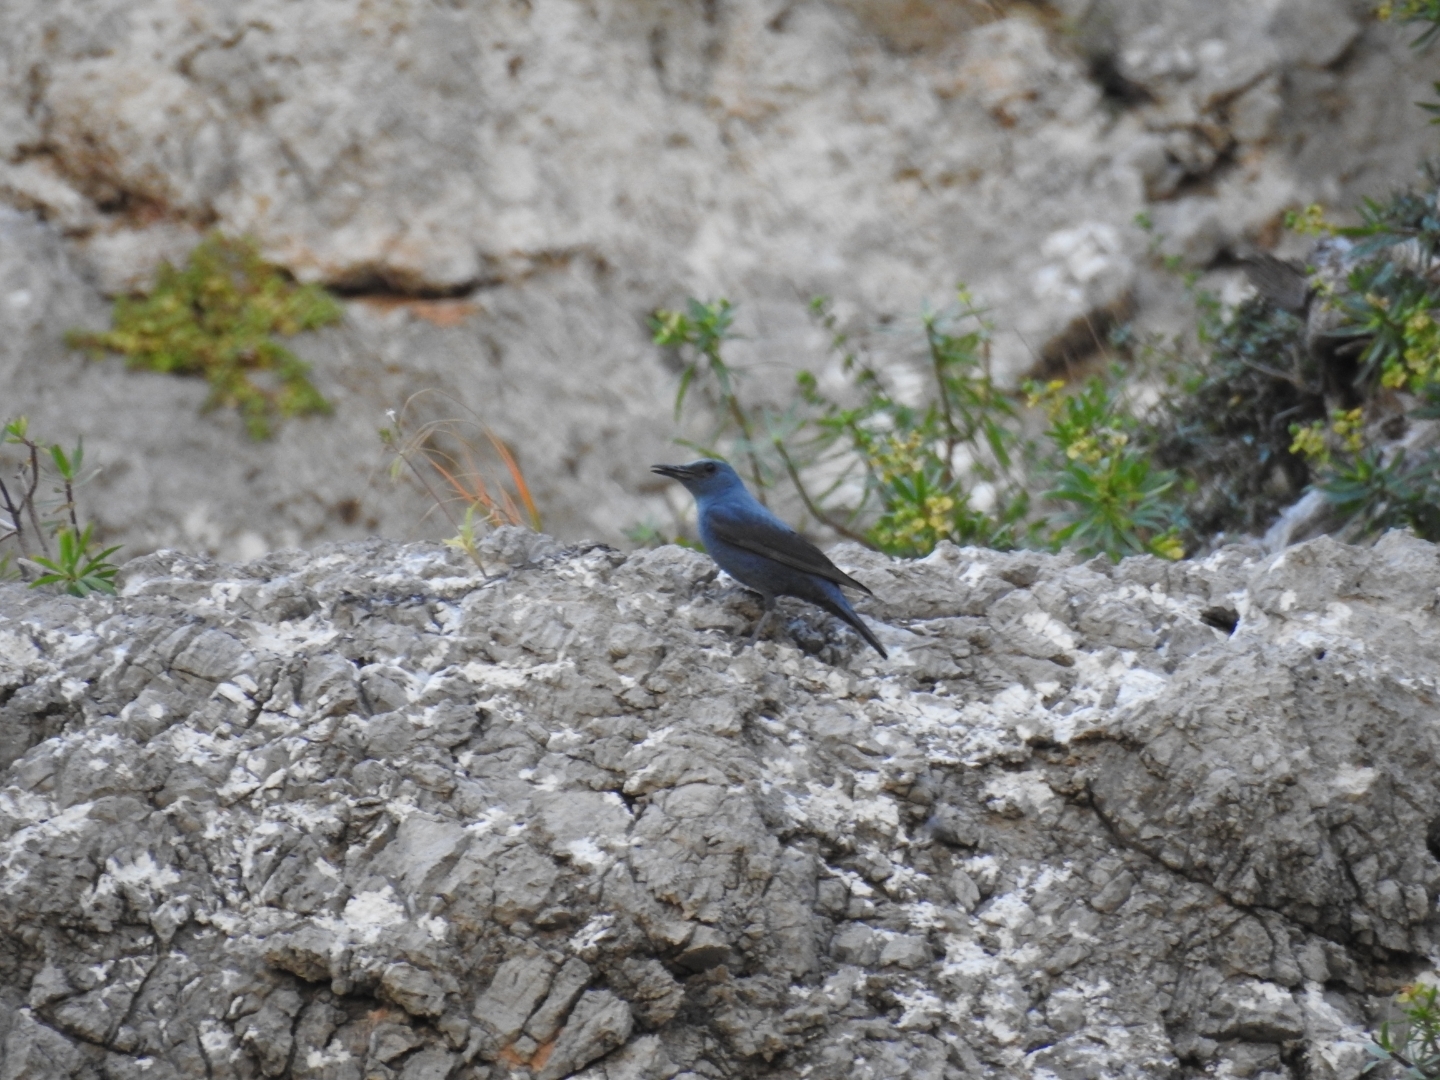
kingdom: Animalia
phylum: Chordata
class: Aves
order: Passeriformes
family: Muscicapidae
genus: Monticola
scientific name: Monticola solitarius
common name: Blue rock thrush
